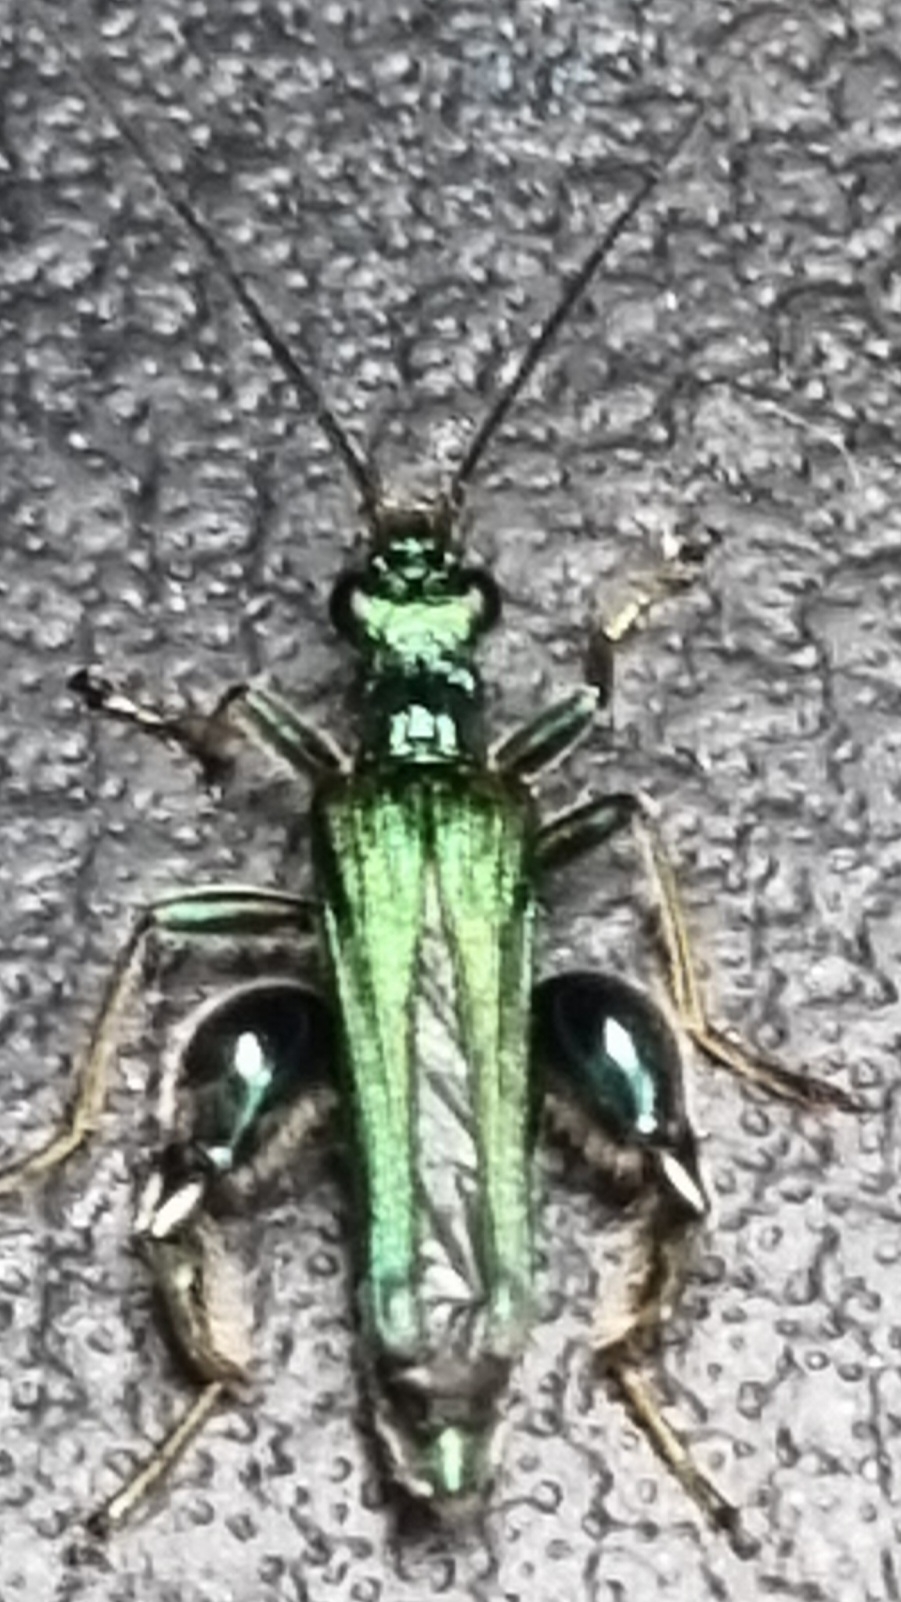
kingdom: Animalia
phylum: Arthropoda
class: Insecta
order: Coleoptera
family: Oedemeridae
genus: Oedemera
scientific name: Oedemera nobilis
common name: Swollen-thighed beetle
